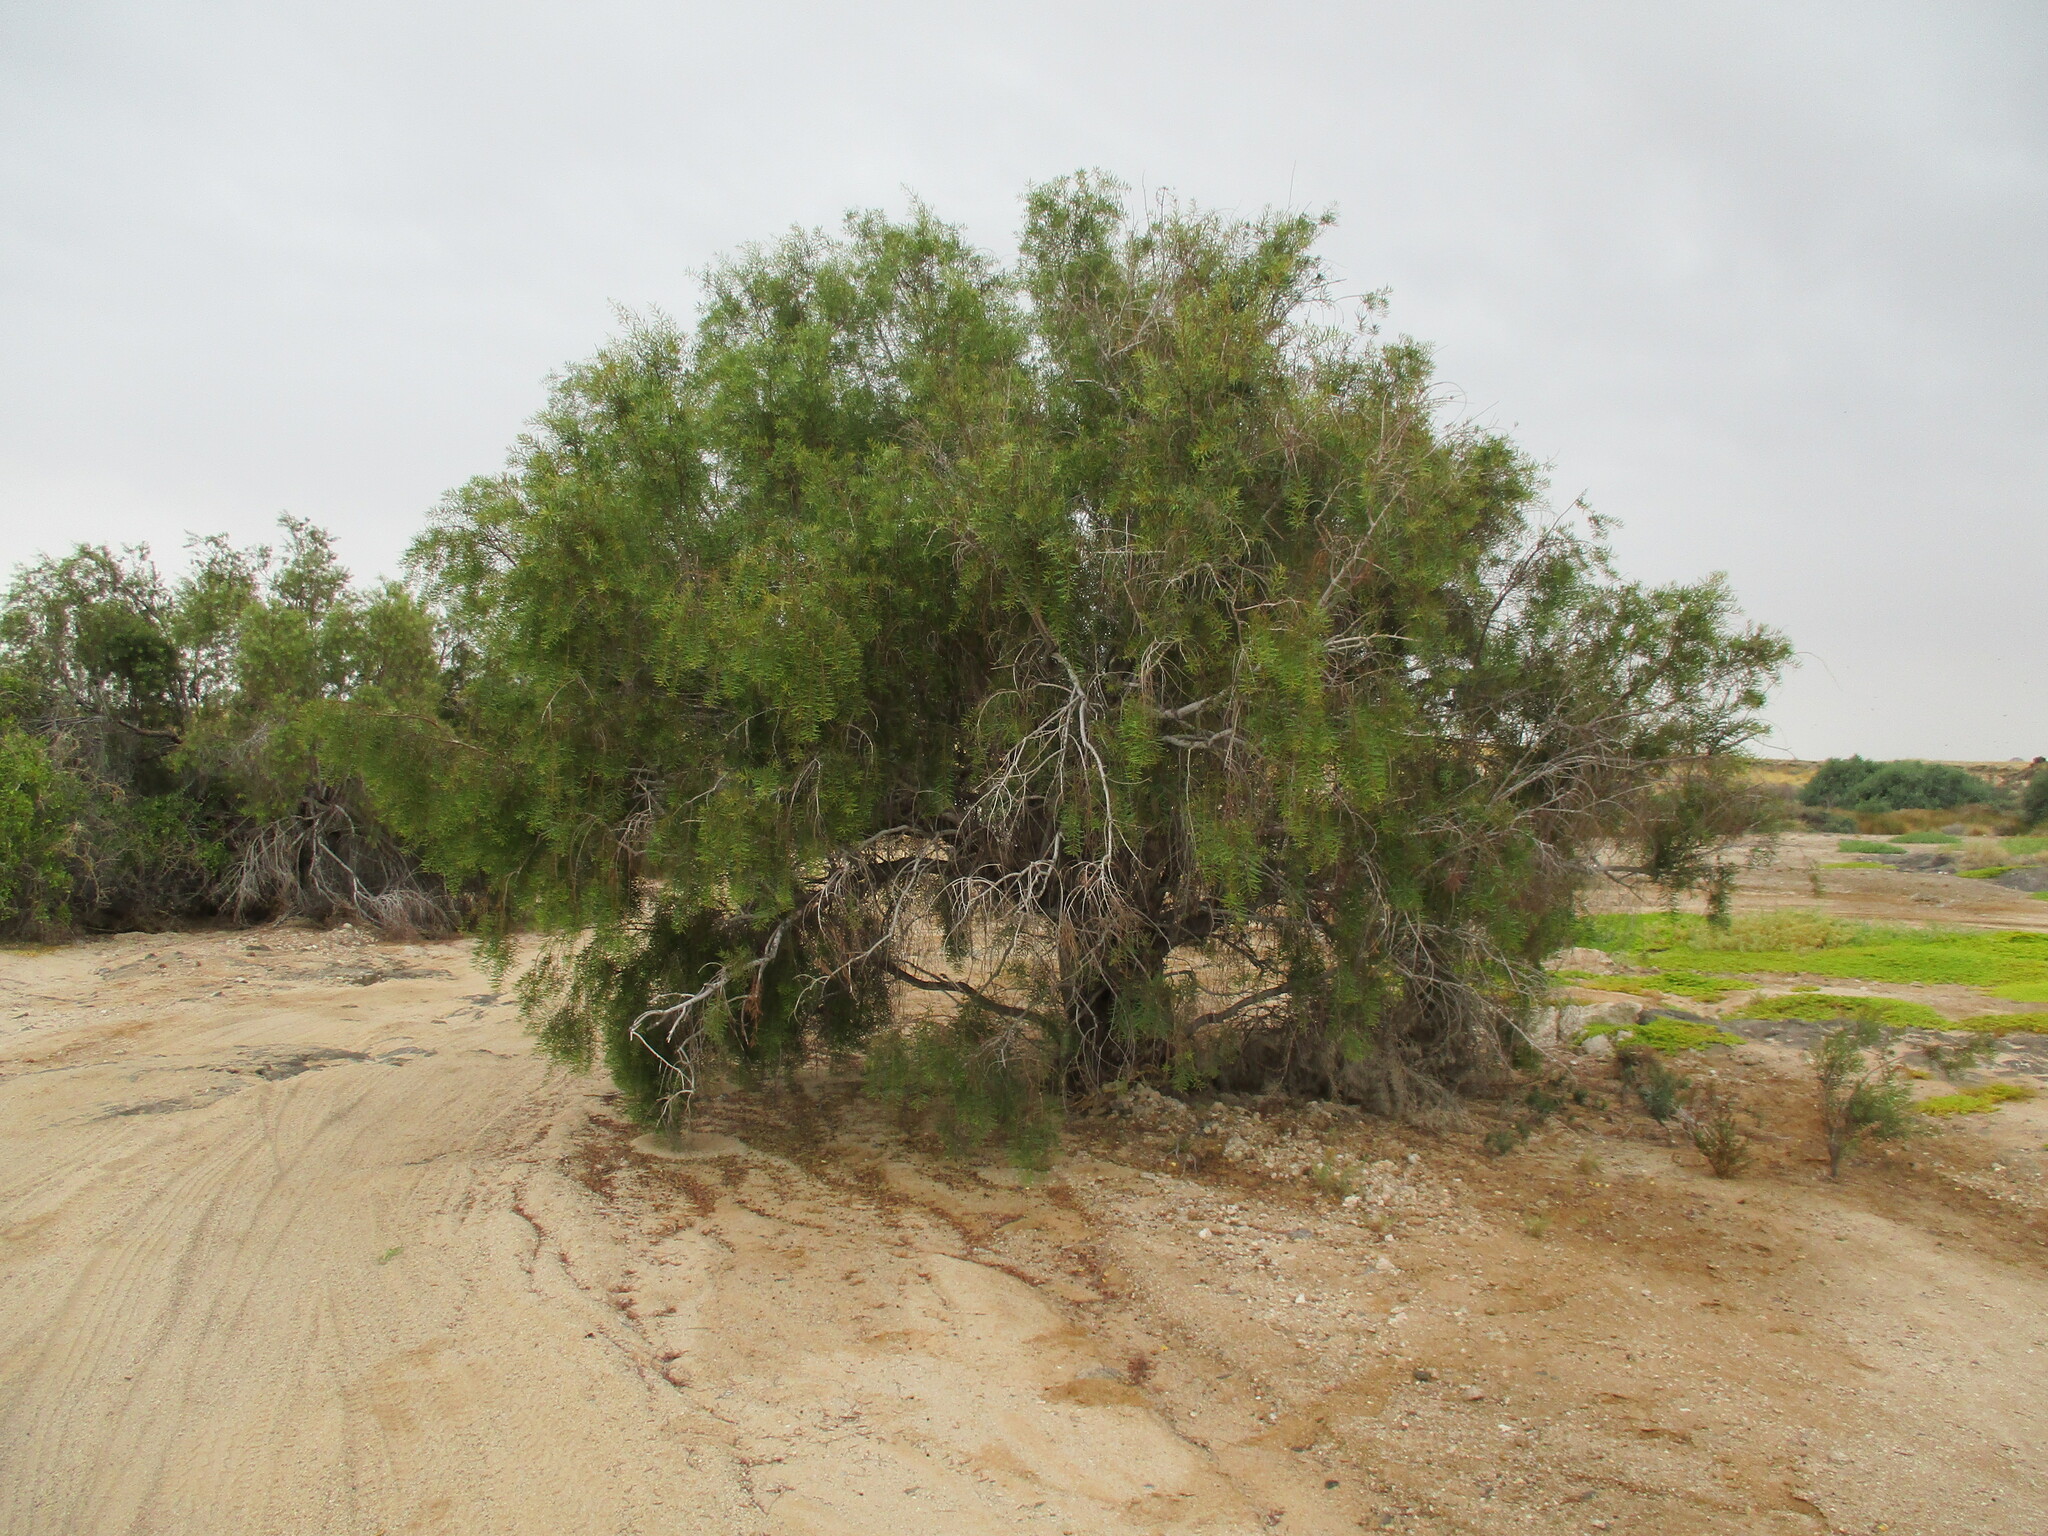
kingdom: Plantae
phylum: Tracheophyta
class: Magnoliopsida
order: Ericales
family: Ebenaceae
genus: Euclea
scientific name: Euclea pseudebenus
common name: Black ebony
